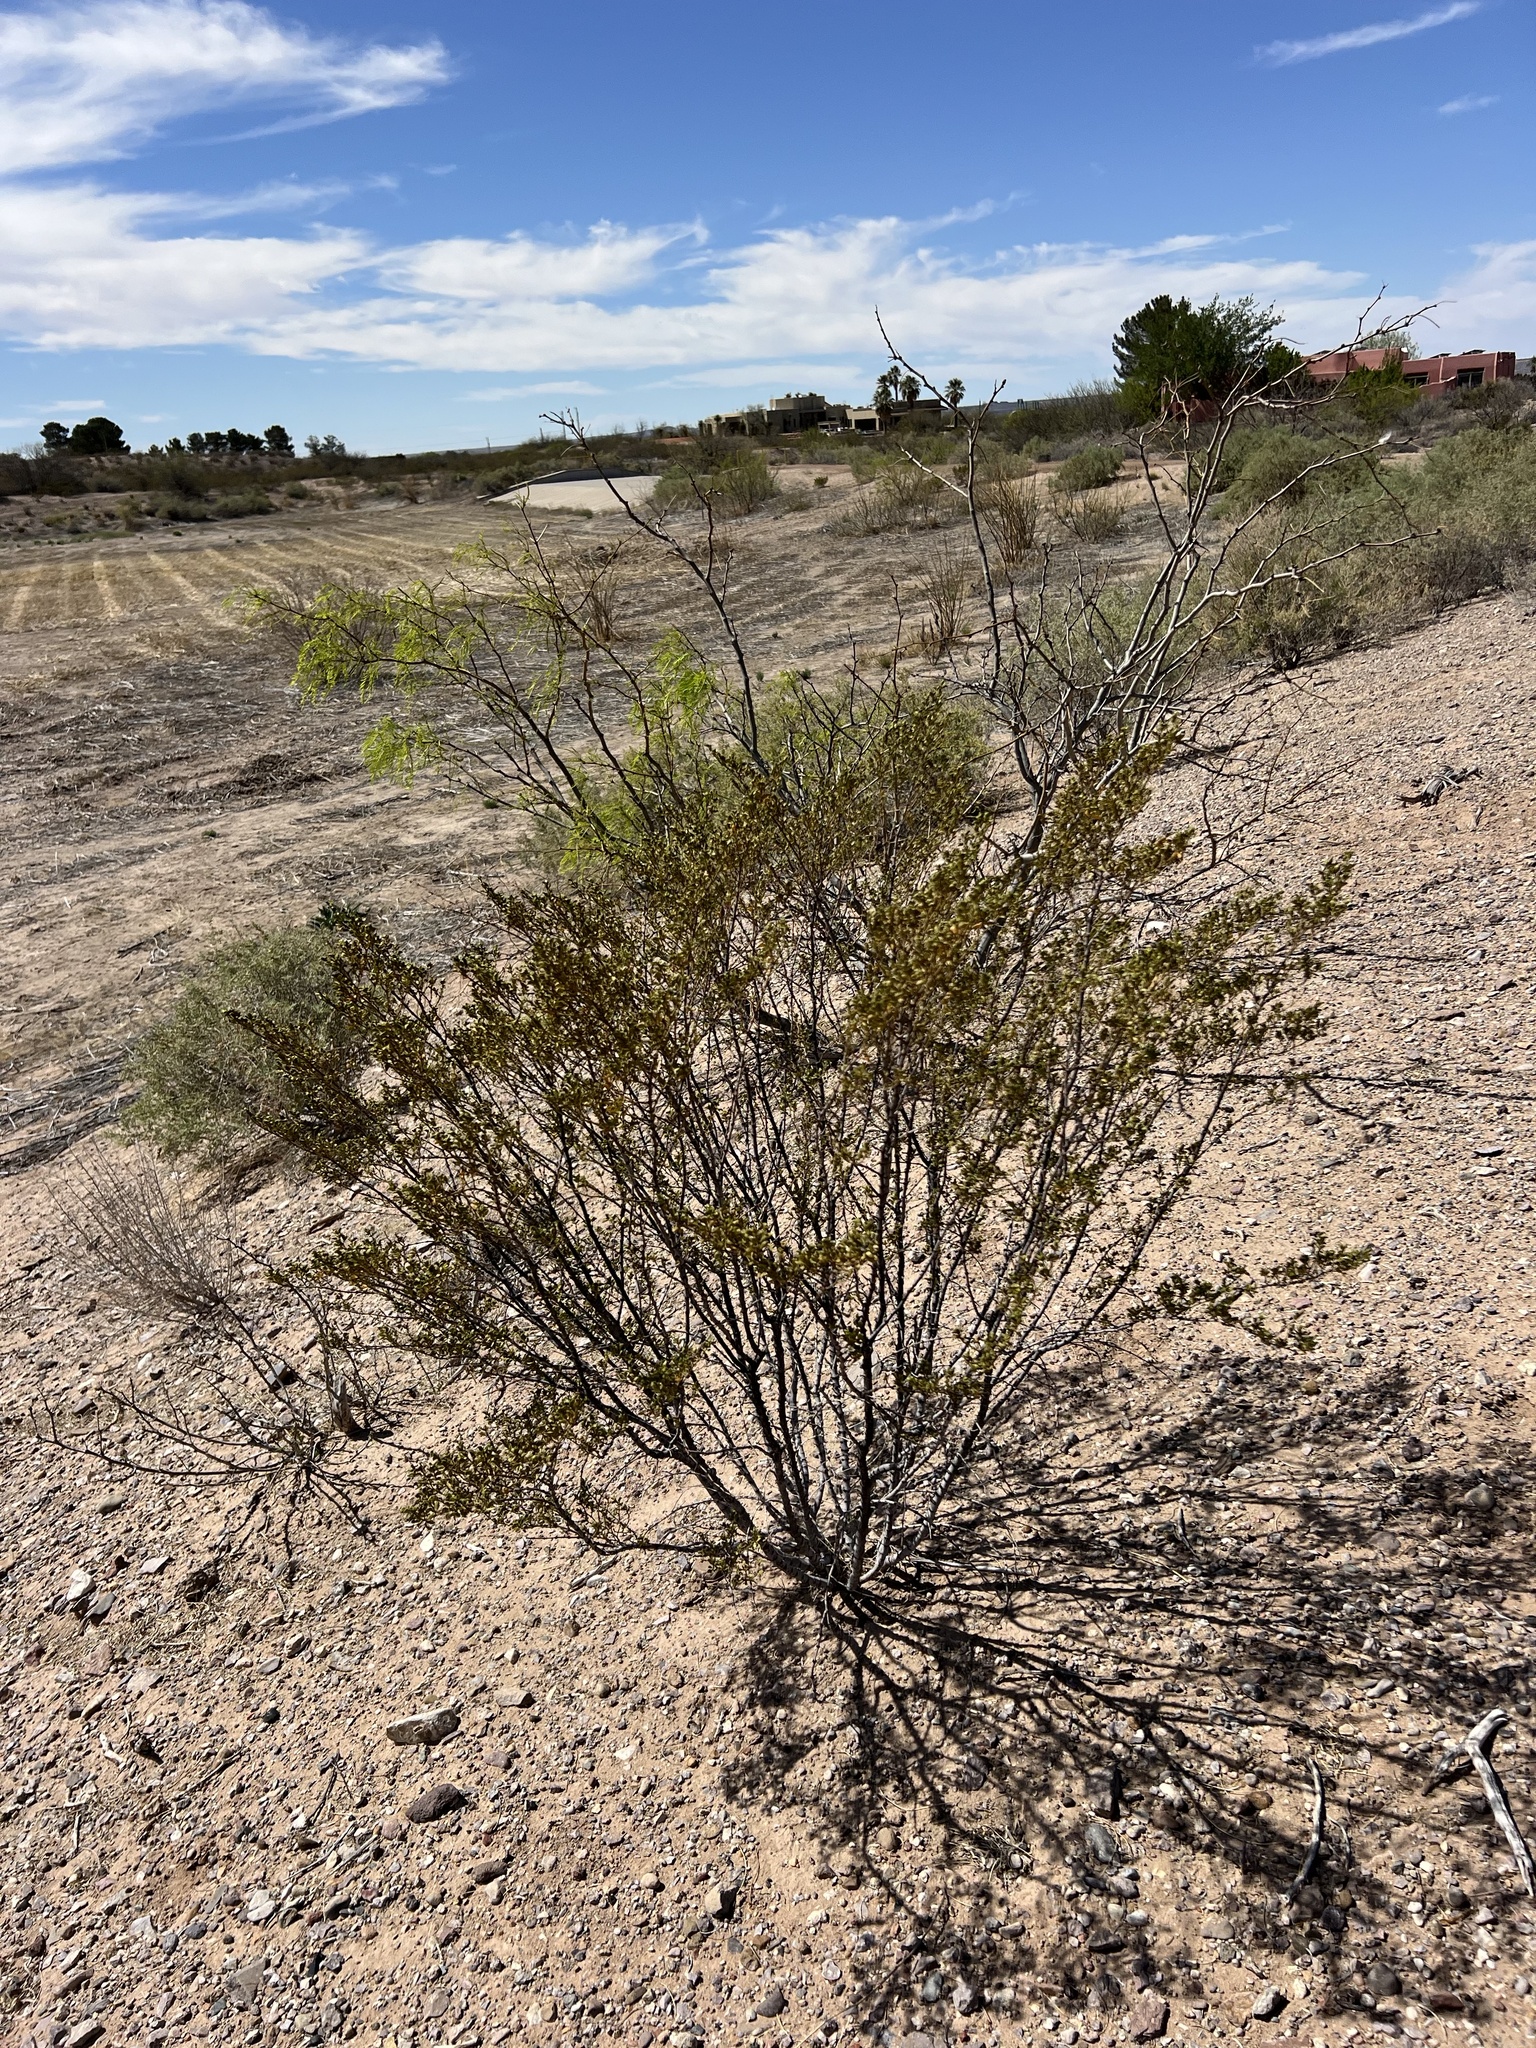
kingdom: Plantae
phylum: Tracheophyta
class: Magnoliopsida
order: Zygophyllales
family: Zygophyllaceae
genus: Larrea
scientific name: Larrea tridentata
